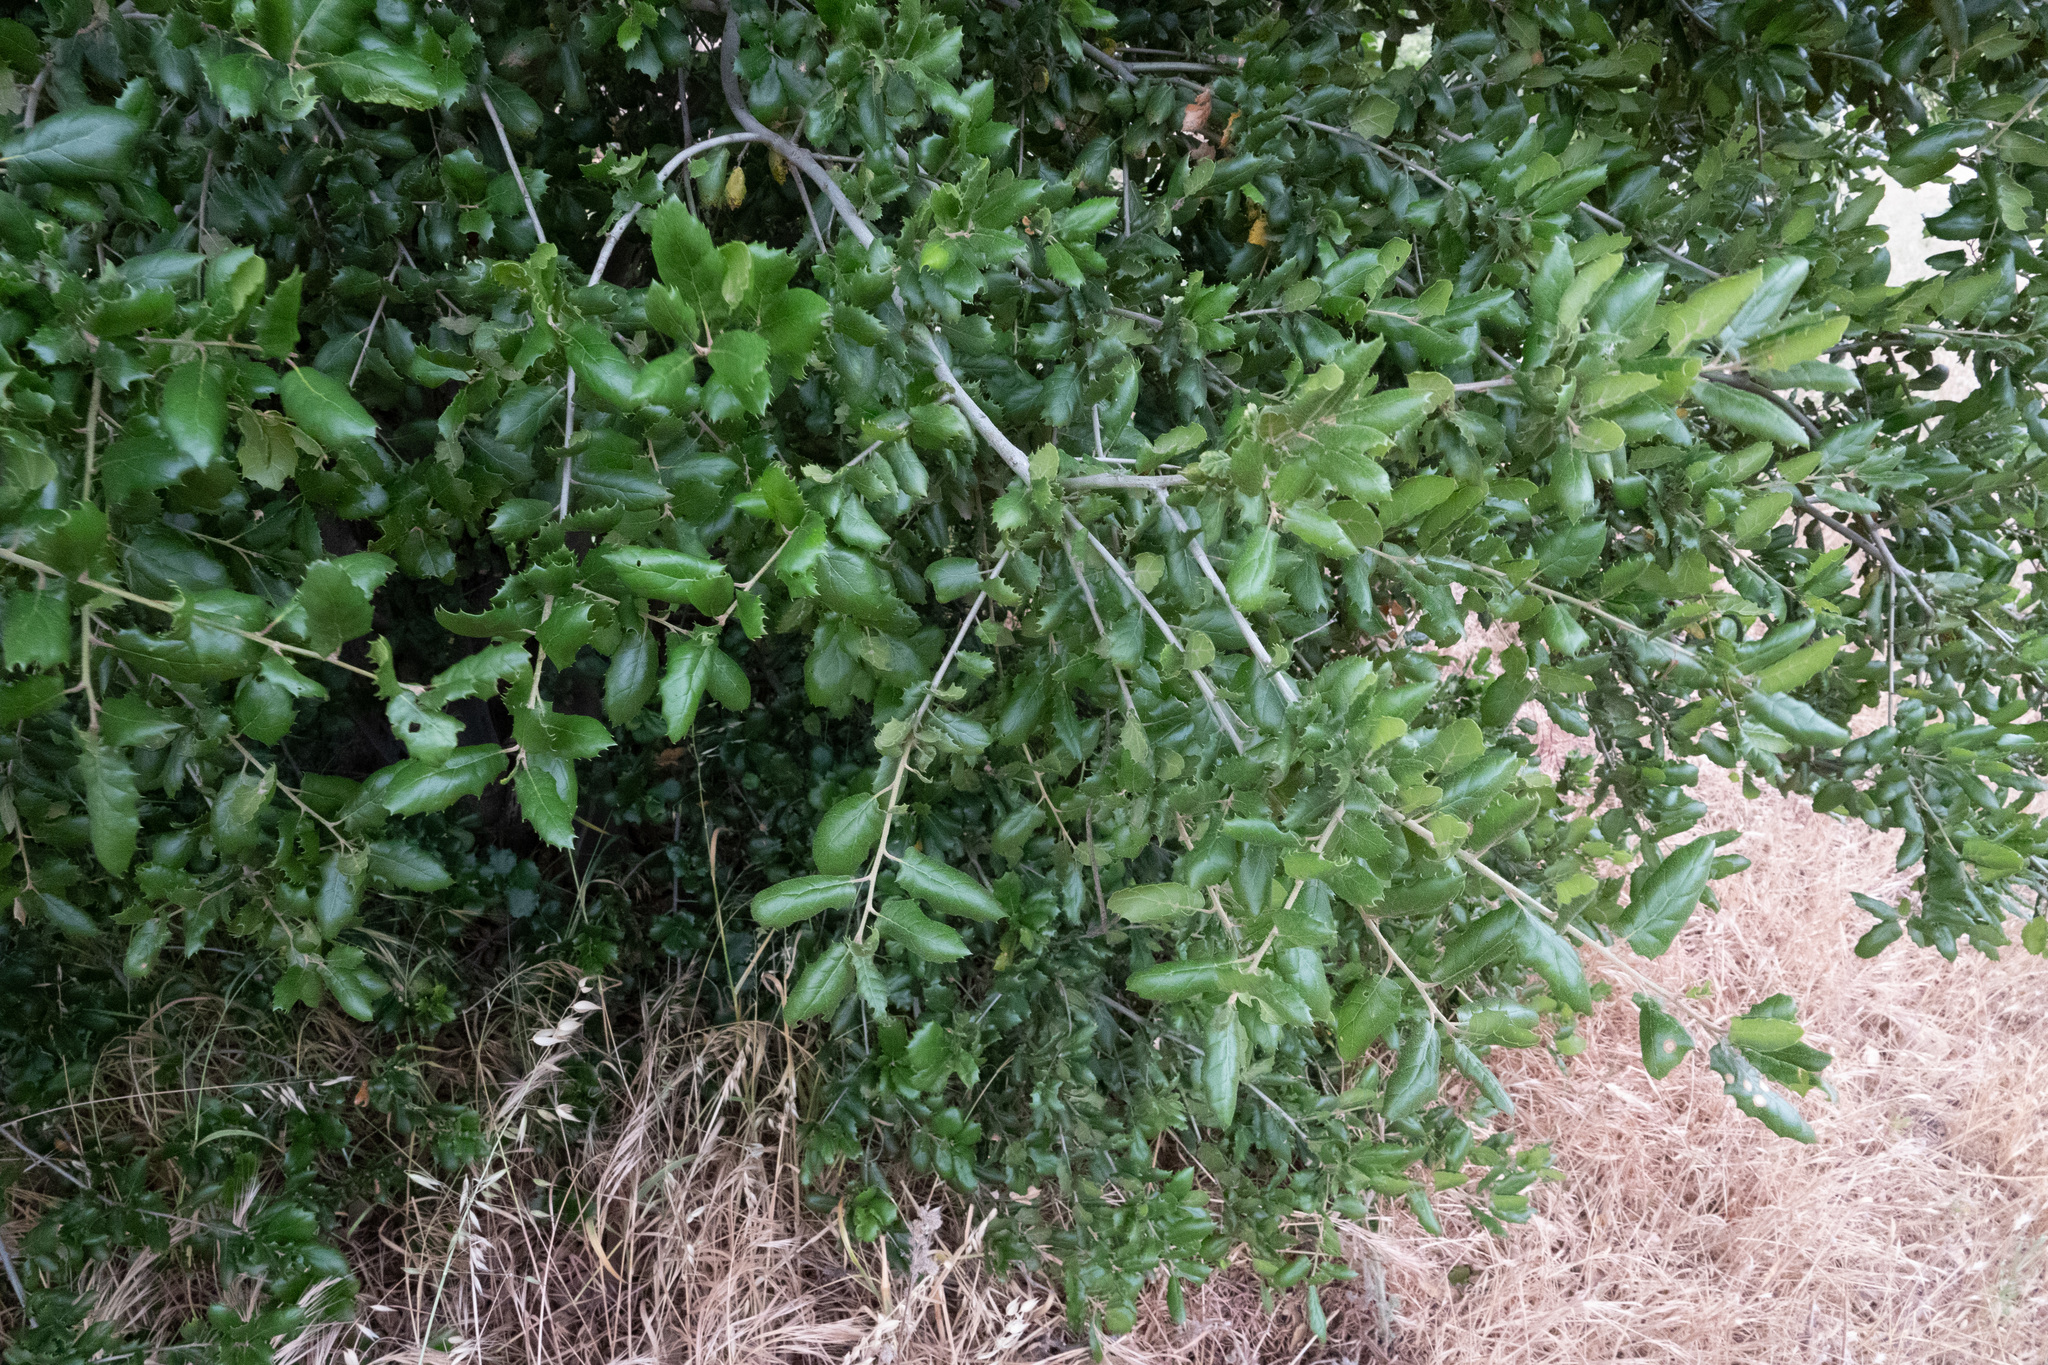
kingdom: Plantae
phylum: Tracheophyta
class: Magnoliopsida
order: Fagales
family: Fagaceae
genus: Quercus
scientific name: Quercus agrifolia
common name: California live oak
